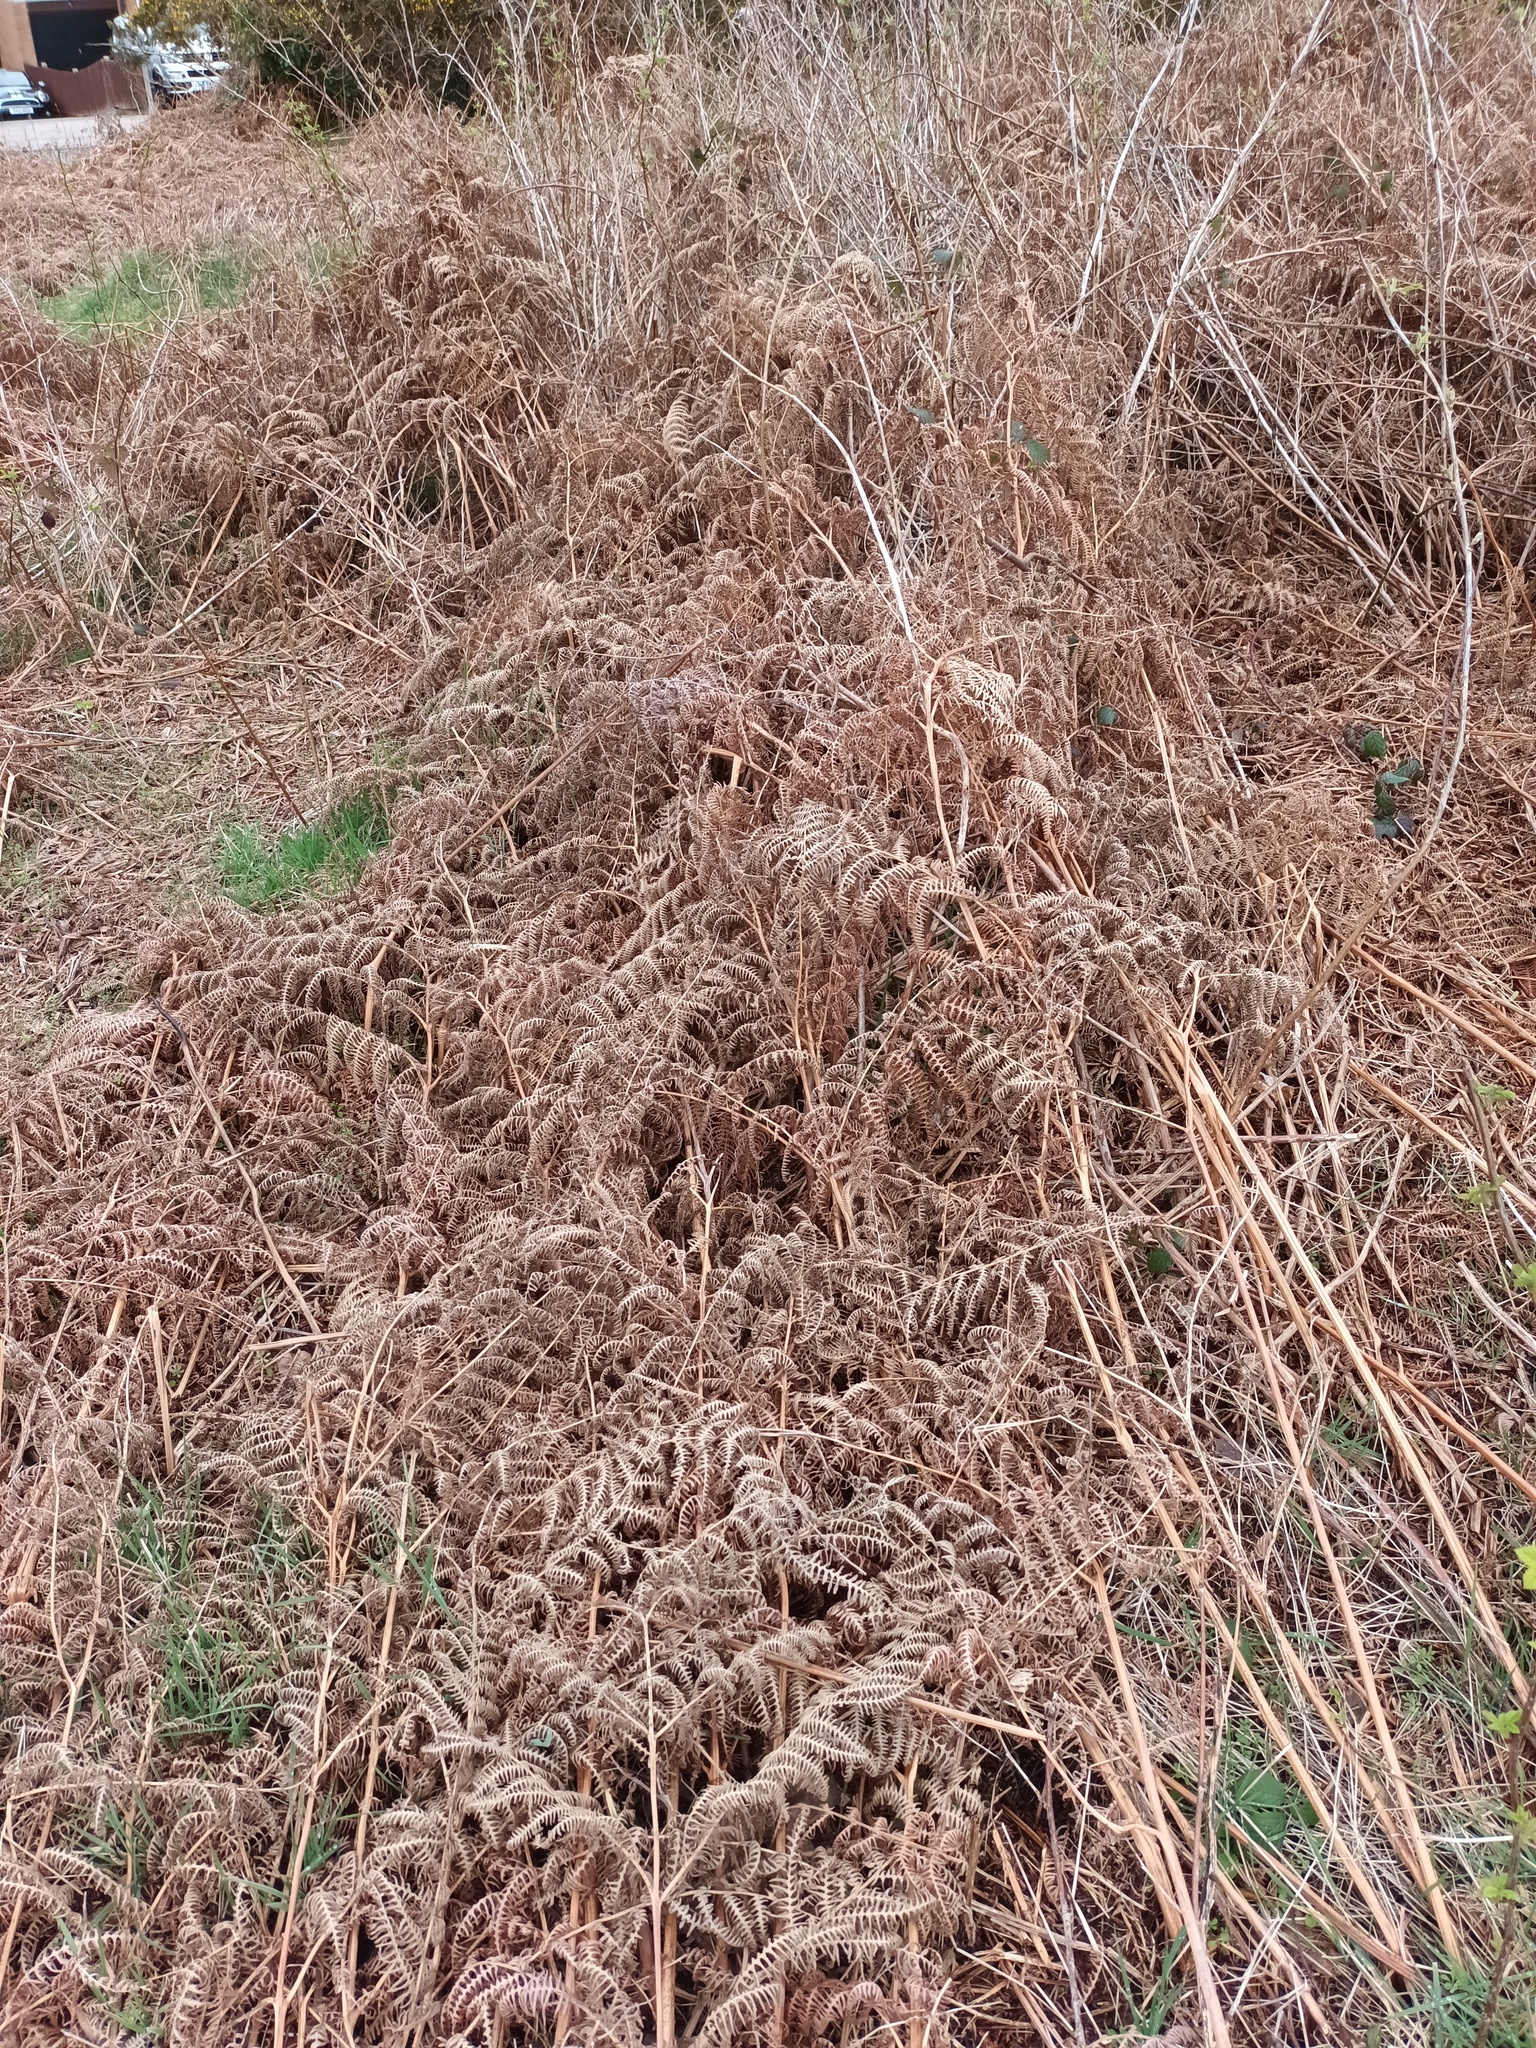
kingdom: Plantae
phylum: Tracheophyta
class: Polypodiopsida
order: Polypodiales
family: Dennstaedtiaceae
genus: Pteridium
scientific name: Pteridium aquilinum
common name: Bracken
